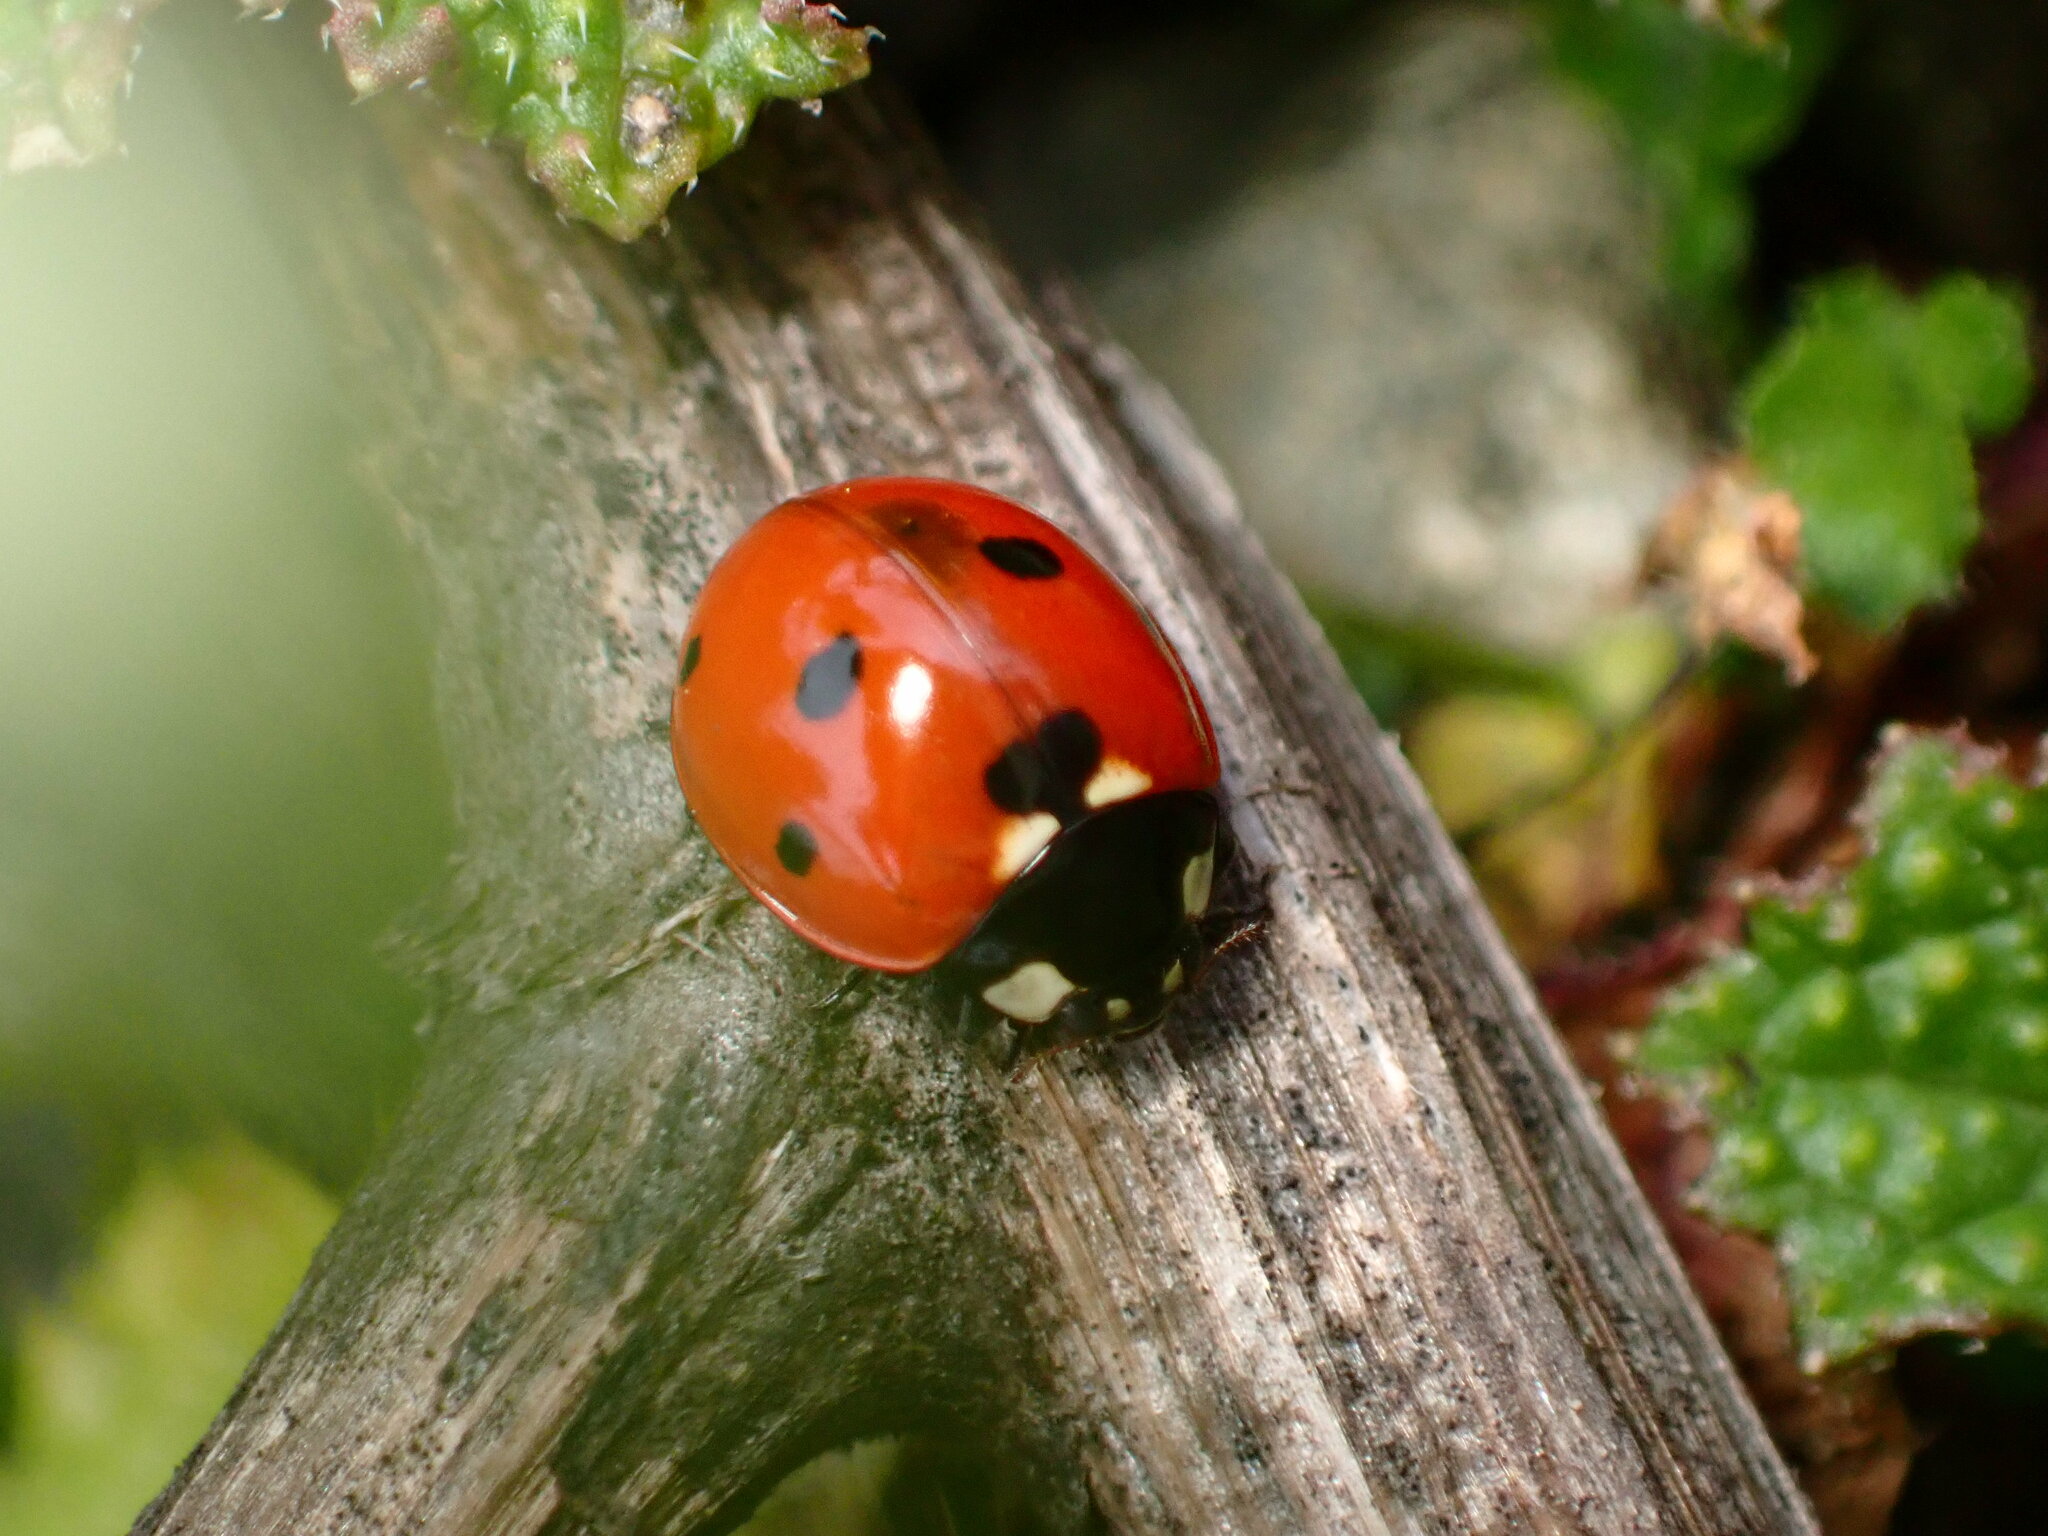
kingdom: Animalia
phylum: Arthropoda
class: Insecta
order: Coleoptera
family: Coccinellidae
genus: Coccinella
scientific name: Coccinella septempunctata
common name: Sevenspotted lady beetle
